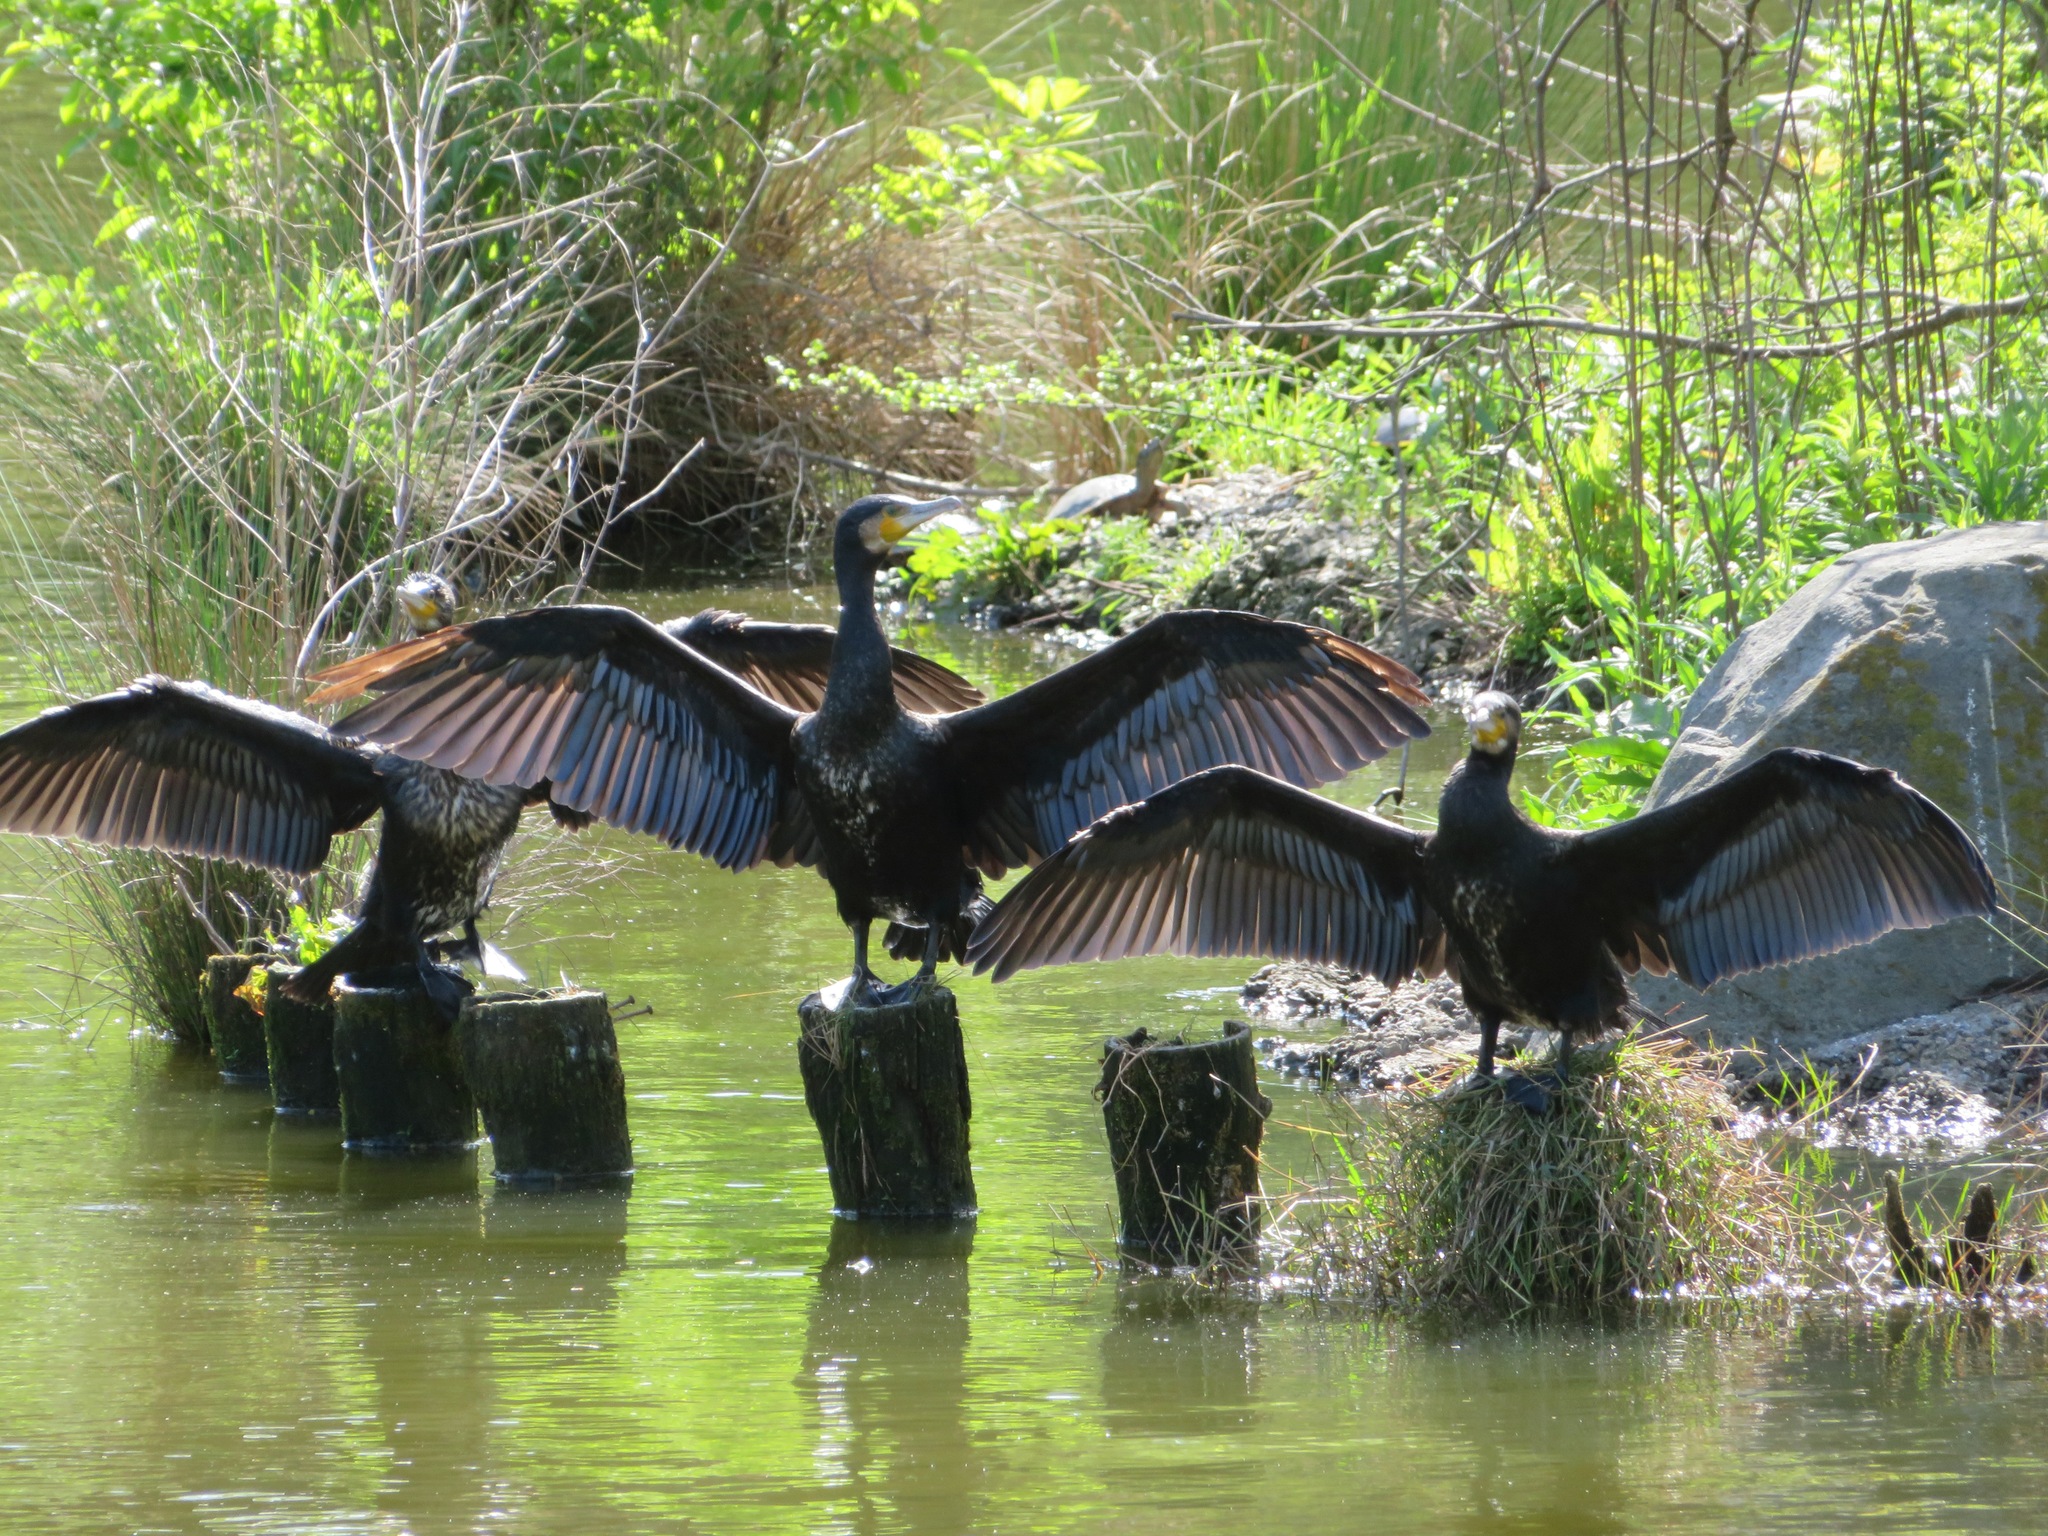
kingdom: Animalia
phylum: Chordata
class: Aves
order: Suliformes
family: Phalacrocoracidae
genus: Phalacrocorax
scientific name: Phalacrocorax carbo
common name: Great cormorant
